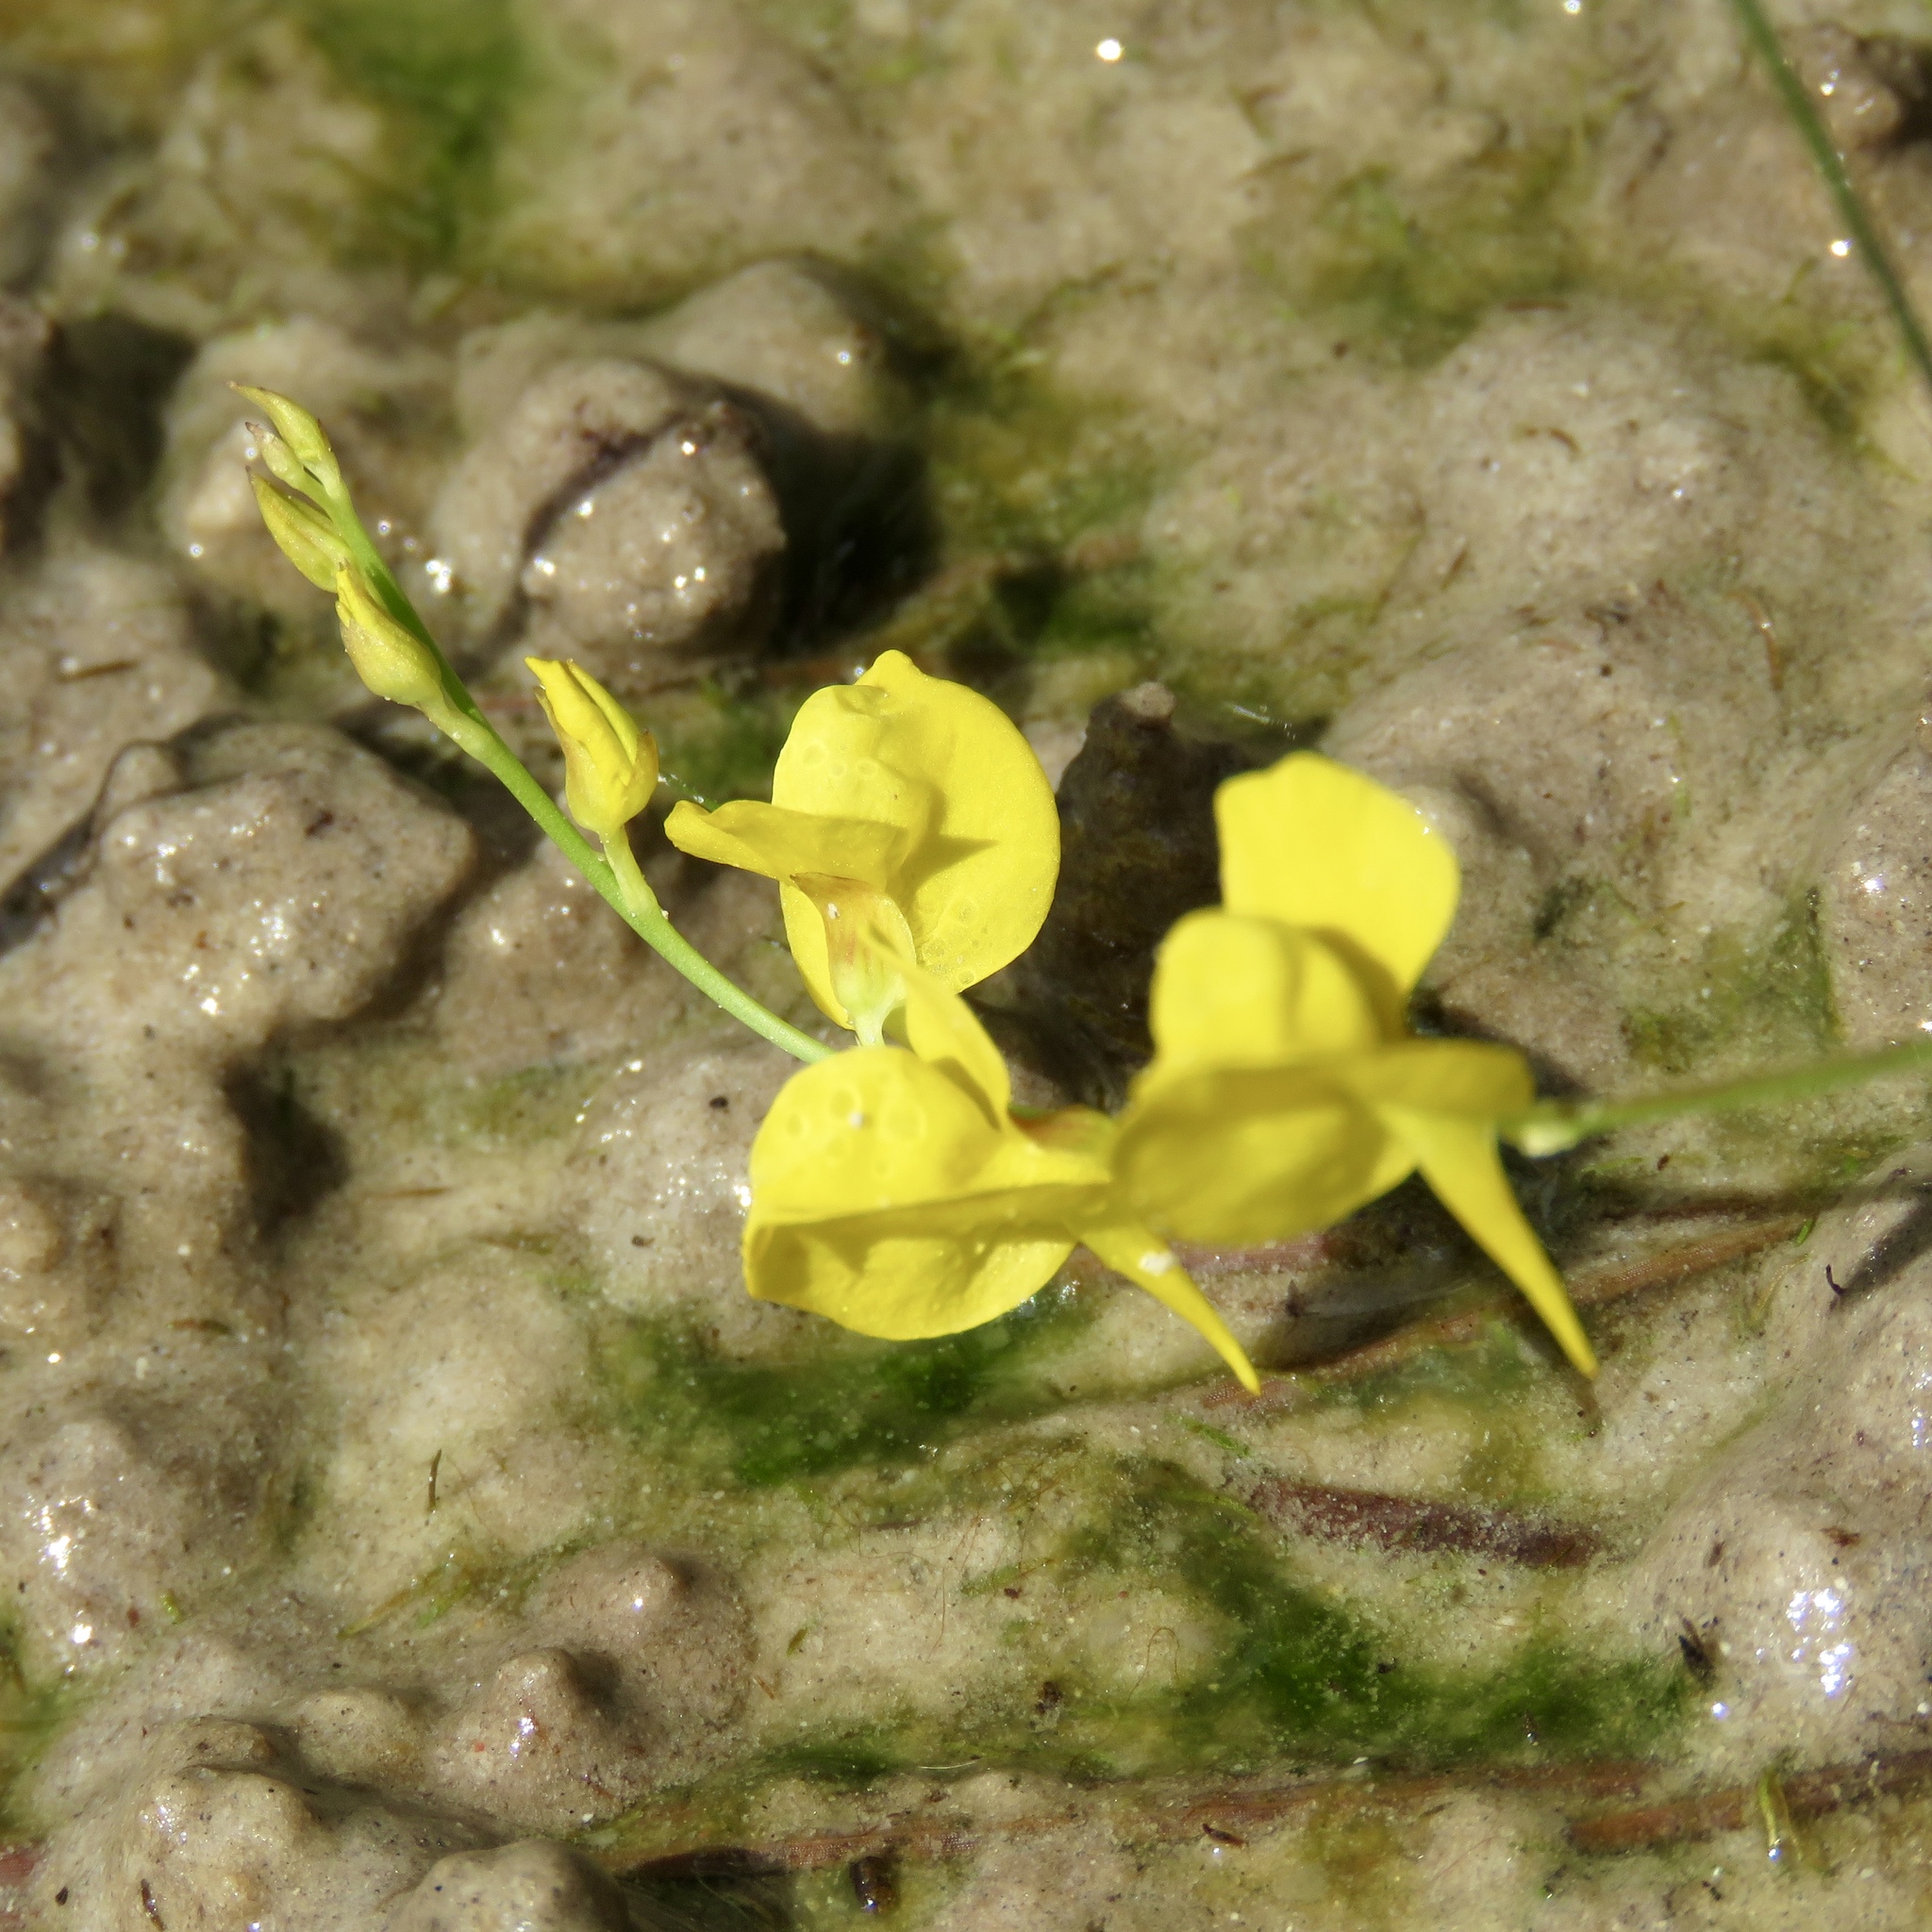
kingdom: Plantae
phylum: Tracheophyta
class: Magnoliopsida
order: Lamiales
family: Lentibulariaceae
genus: Utricularia
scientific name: Utricularia juncea
